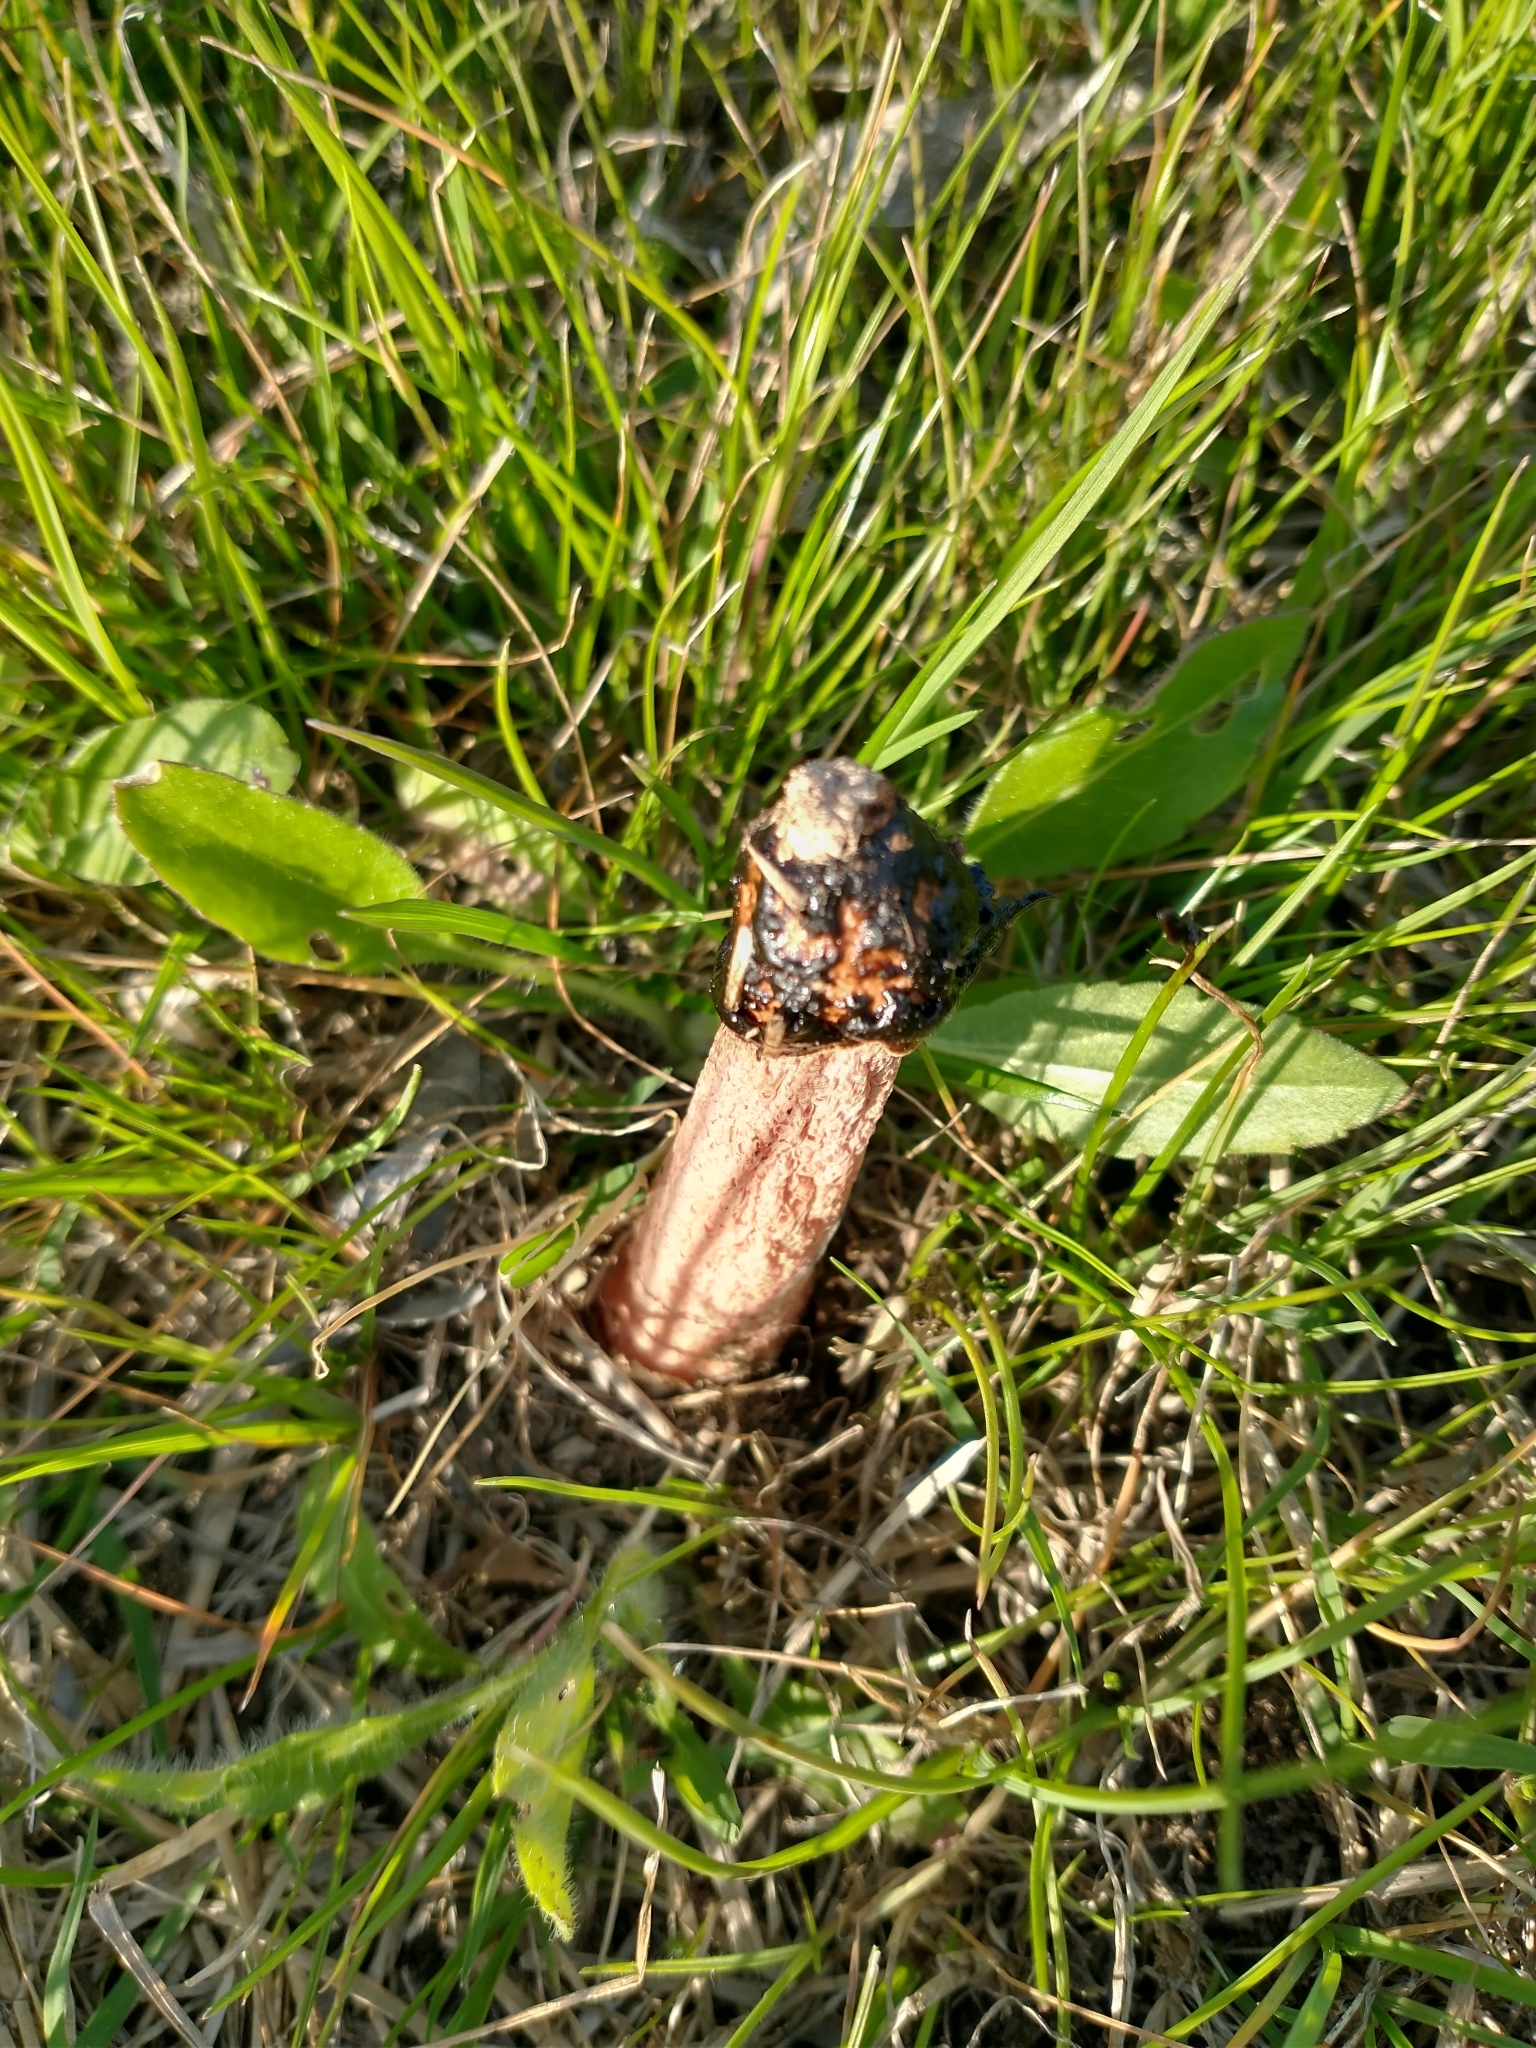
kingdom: Fungi
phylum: Basidiomycota
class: Agaricomycetes
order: Phallales
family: Phallaceae
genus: Phallus
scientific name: Phallus rubicundus
